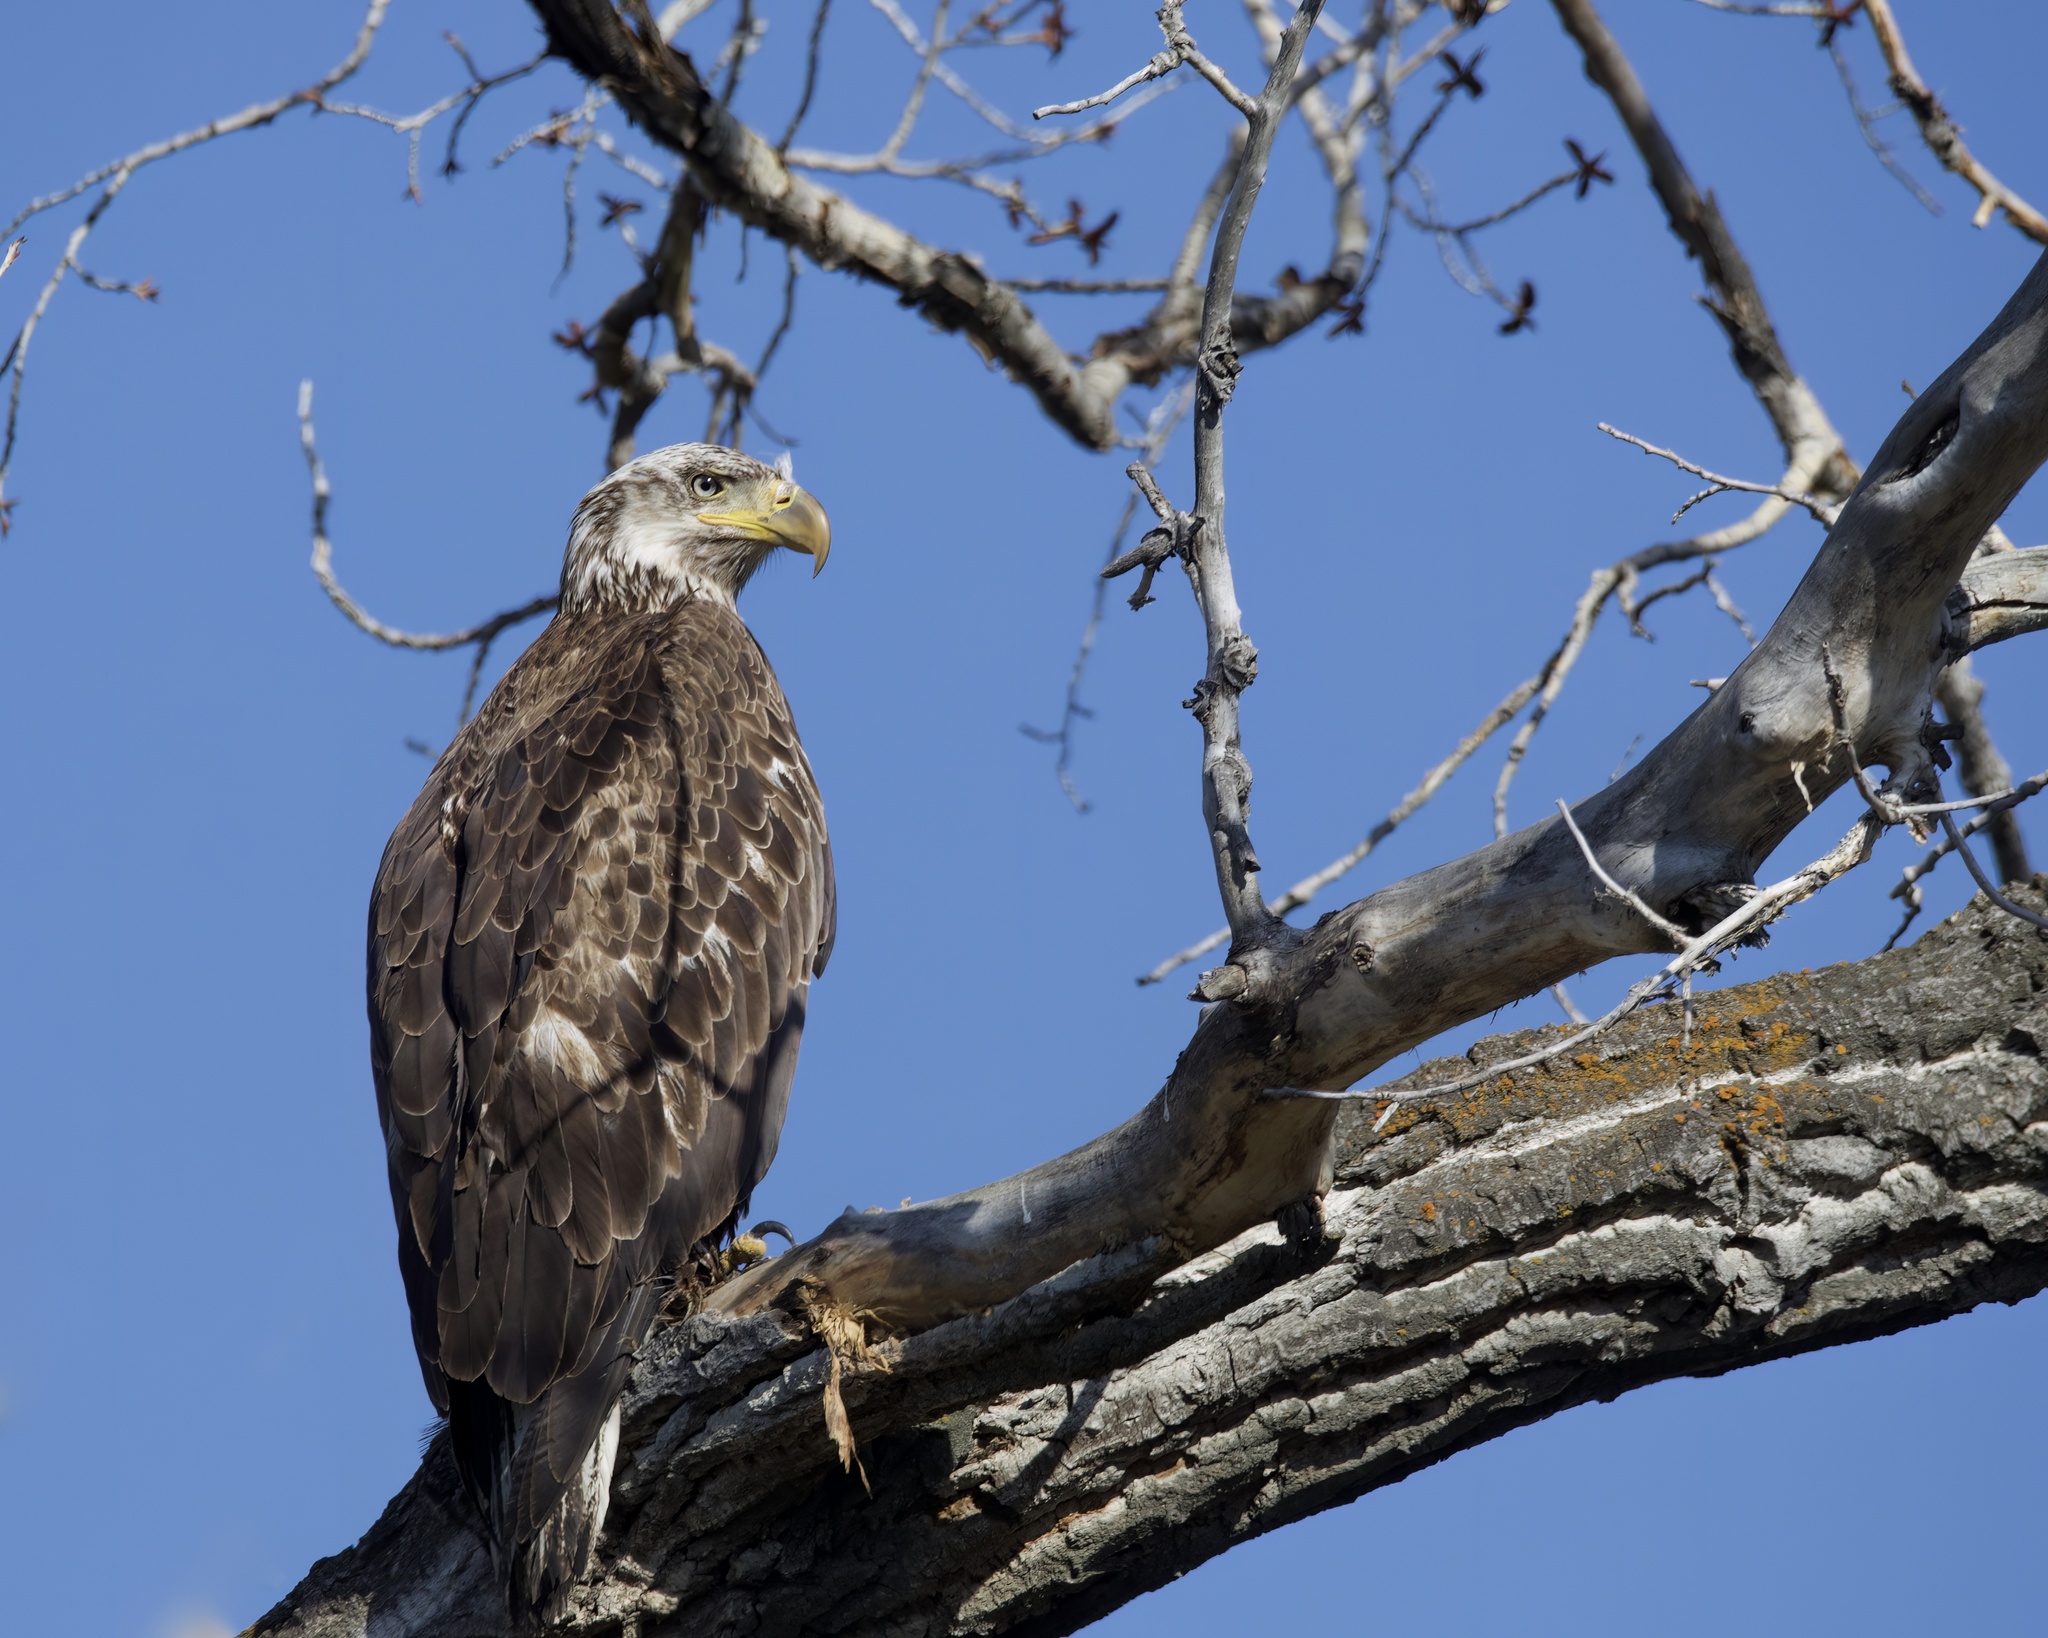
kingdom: Animalia
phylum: Chordata
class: Aves
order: Accipitriformes
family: Accipitridae
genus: Haliaeetus
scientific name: Haliaeetus leucocephalus
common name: Bald eagle
